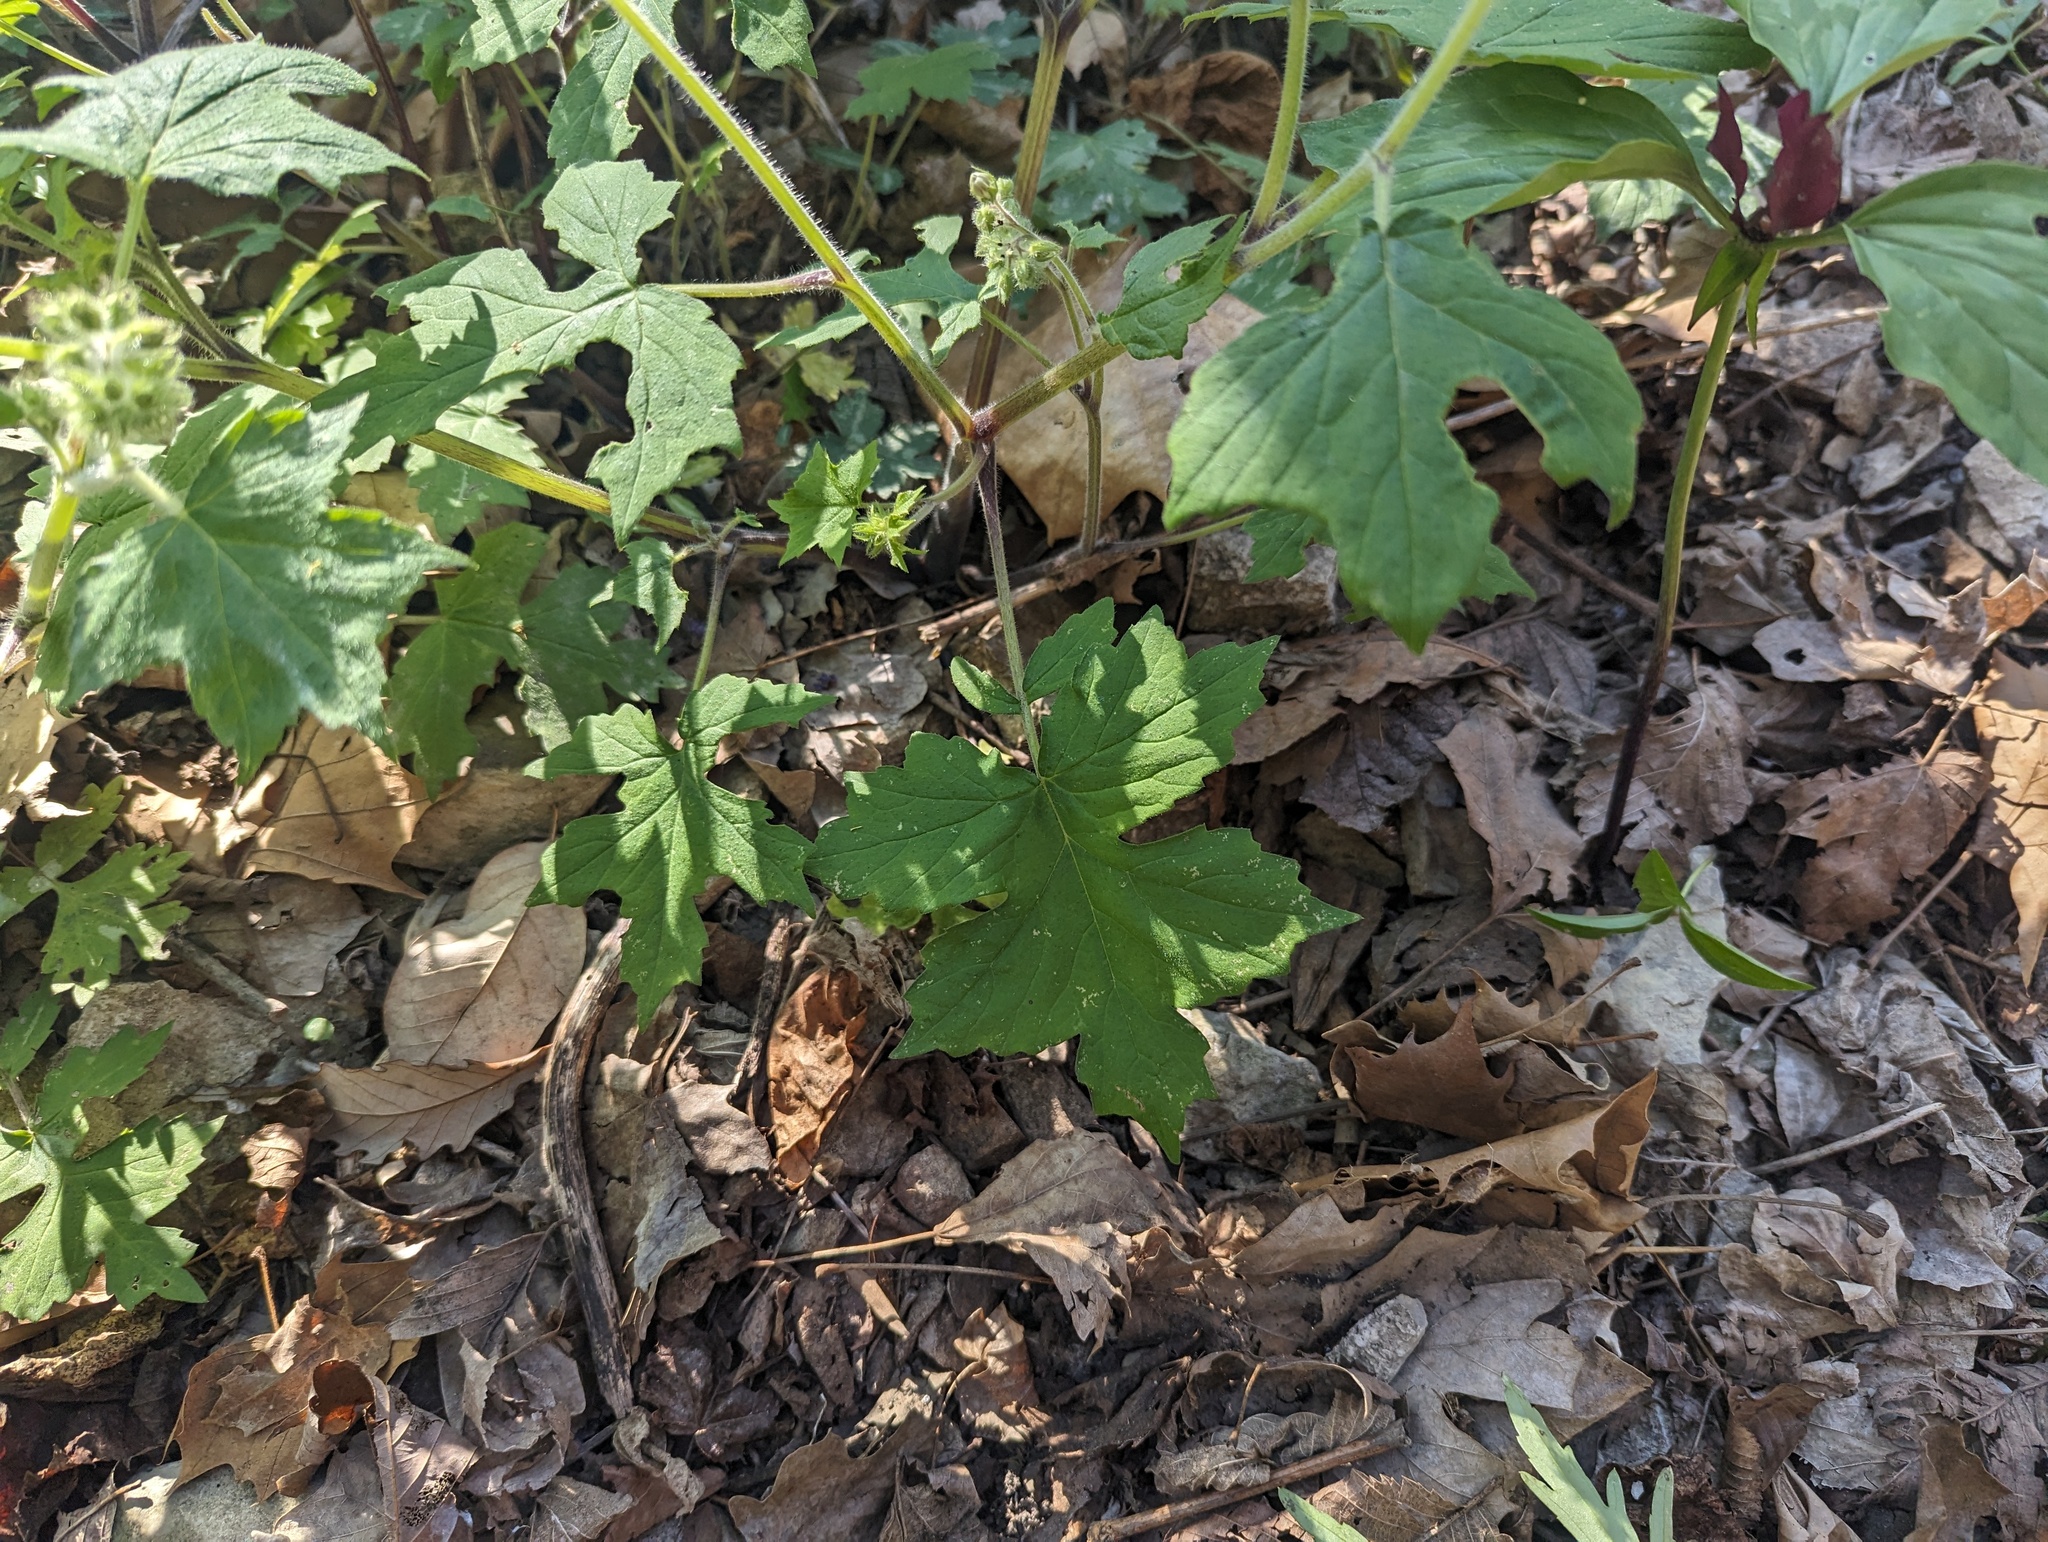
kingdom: Plantae
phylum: Tracheophyta
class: Magnoliopsida
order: Boraginales
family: Hydrophyllaceae
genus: Hydrophyllum
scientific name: Hydrophyllum appendiculatum
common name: Appendaged waterleaf
